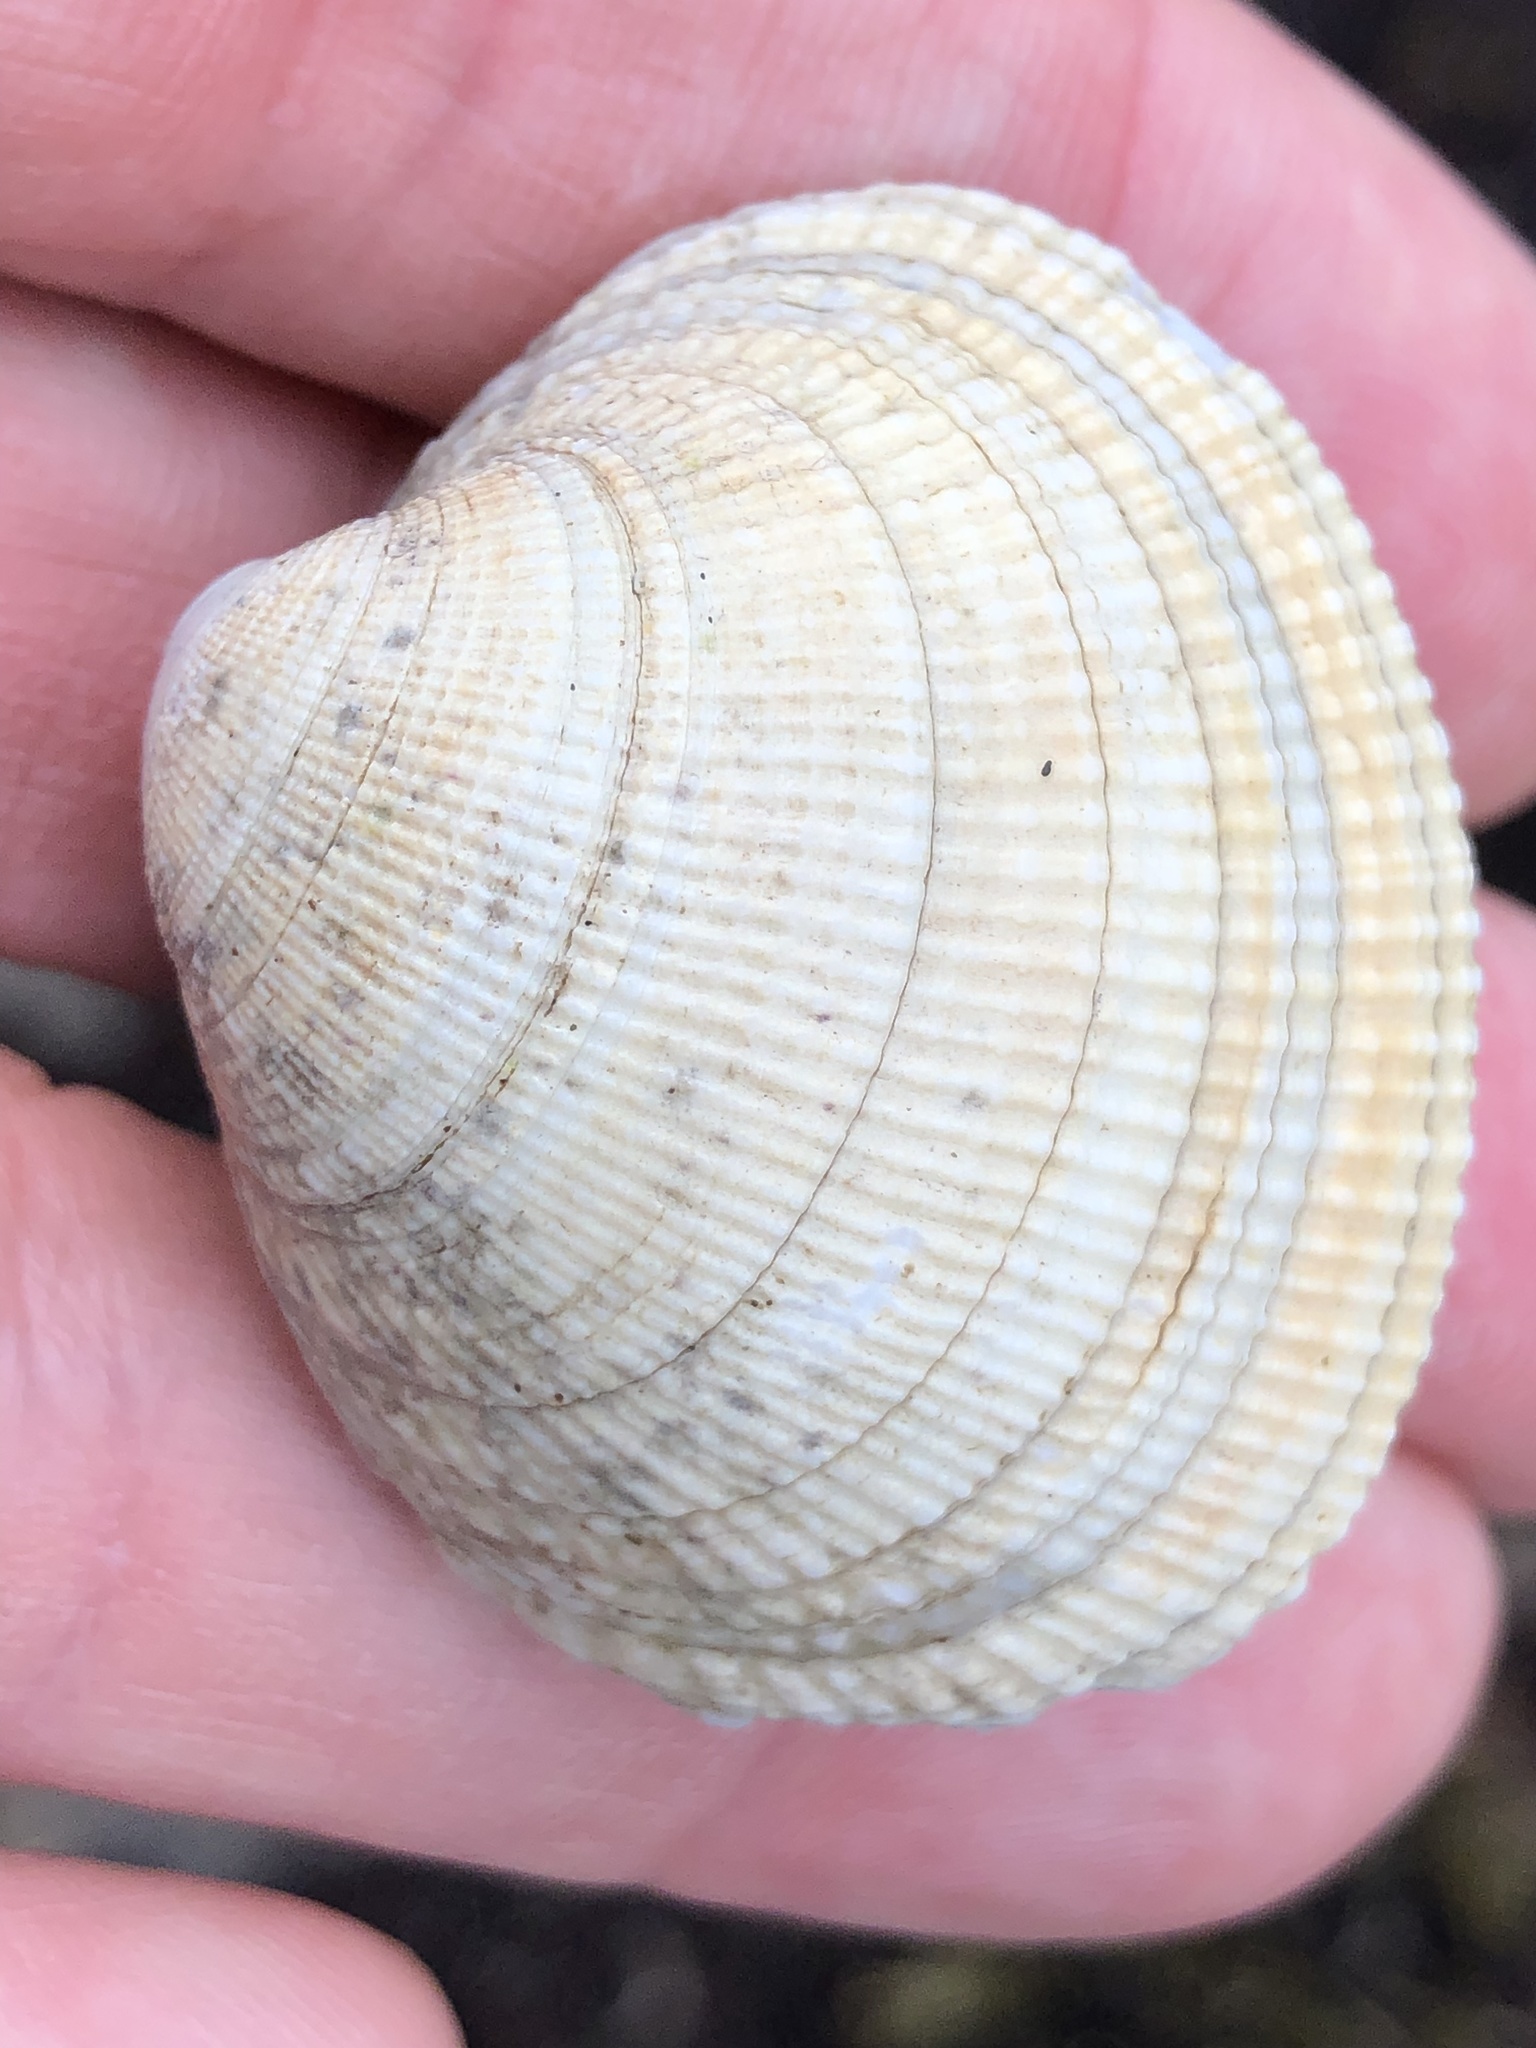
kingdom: Animalia
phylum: Mollusca
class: Bivalvia
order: Venerida
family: Veneridae
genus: Leukoma
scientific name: Leukoma staminea
